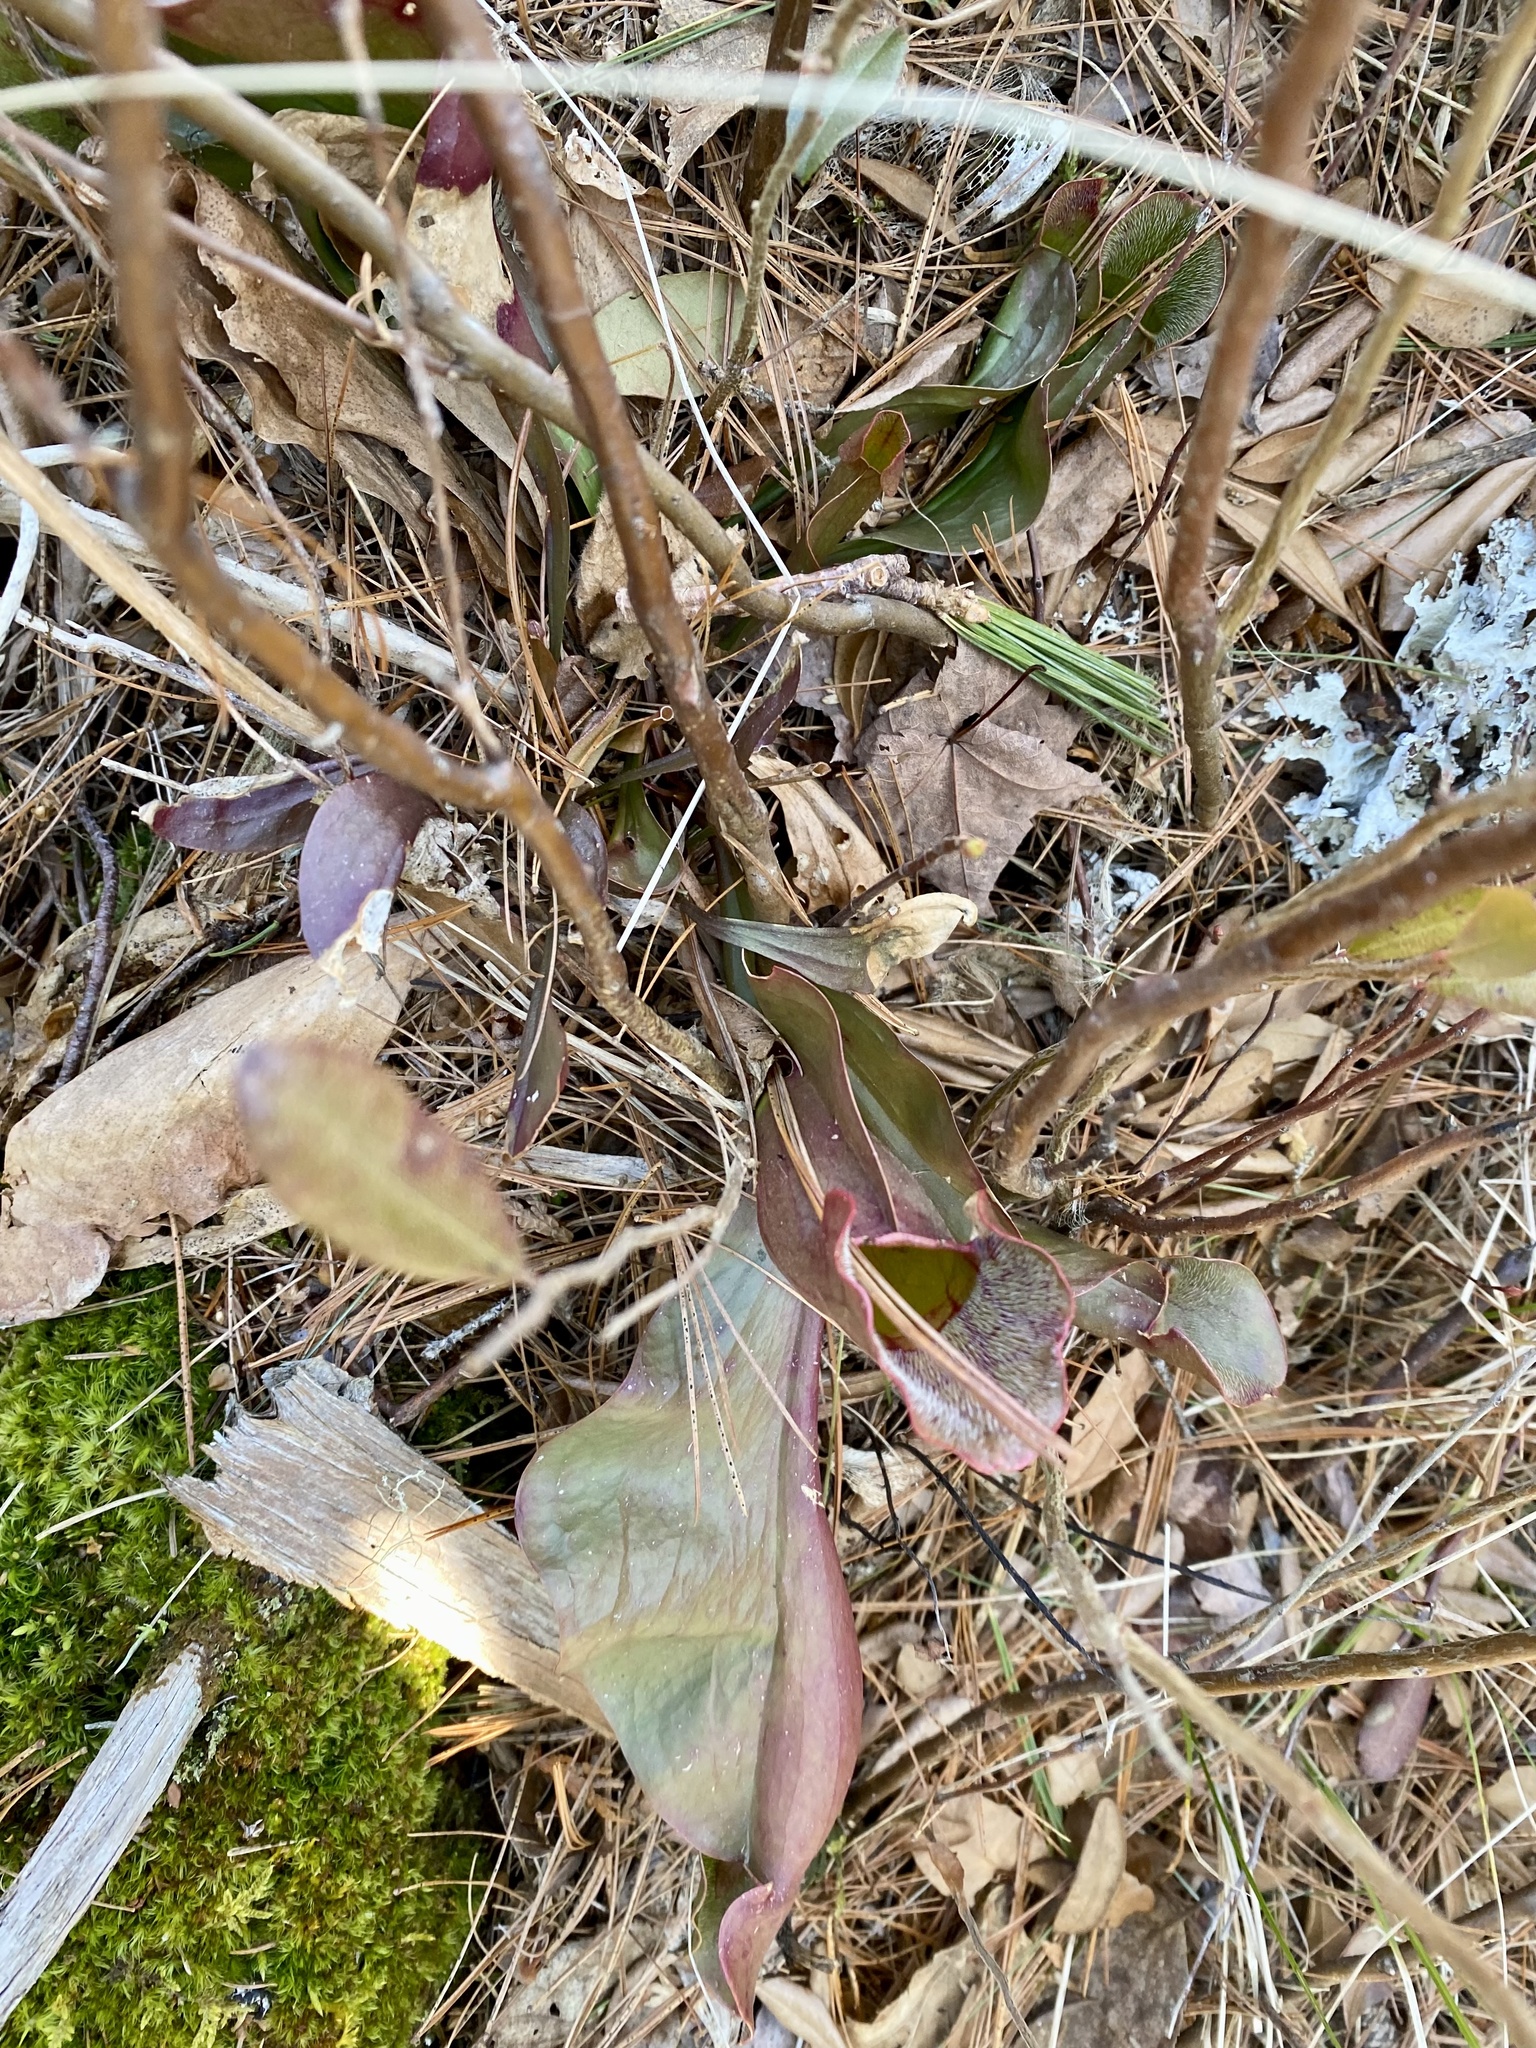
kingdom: Plantae
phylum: Tracheophyta
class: Magnoliopsida
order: Ericales
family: Sarraceniaceae
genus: Sarracenia
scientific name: Sarracenia purpurea
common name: Pitcherplant
